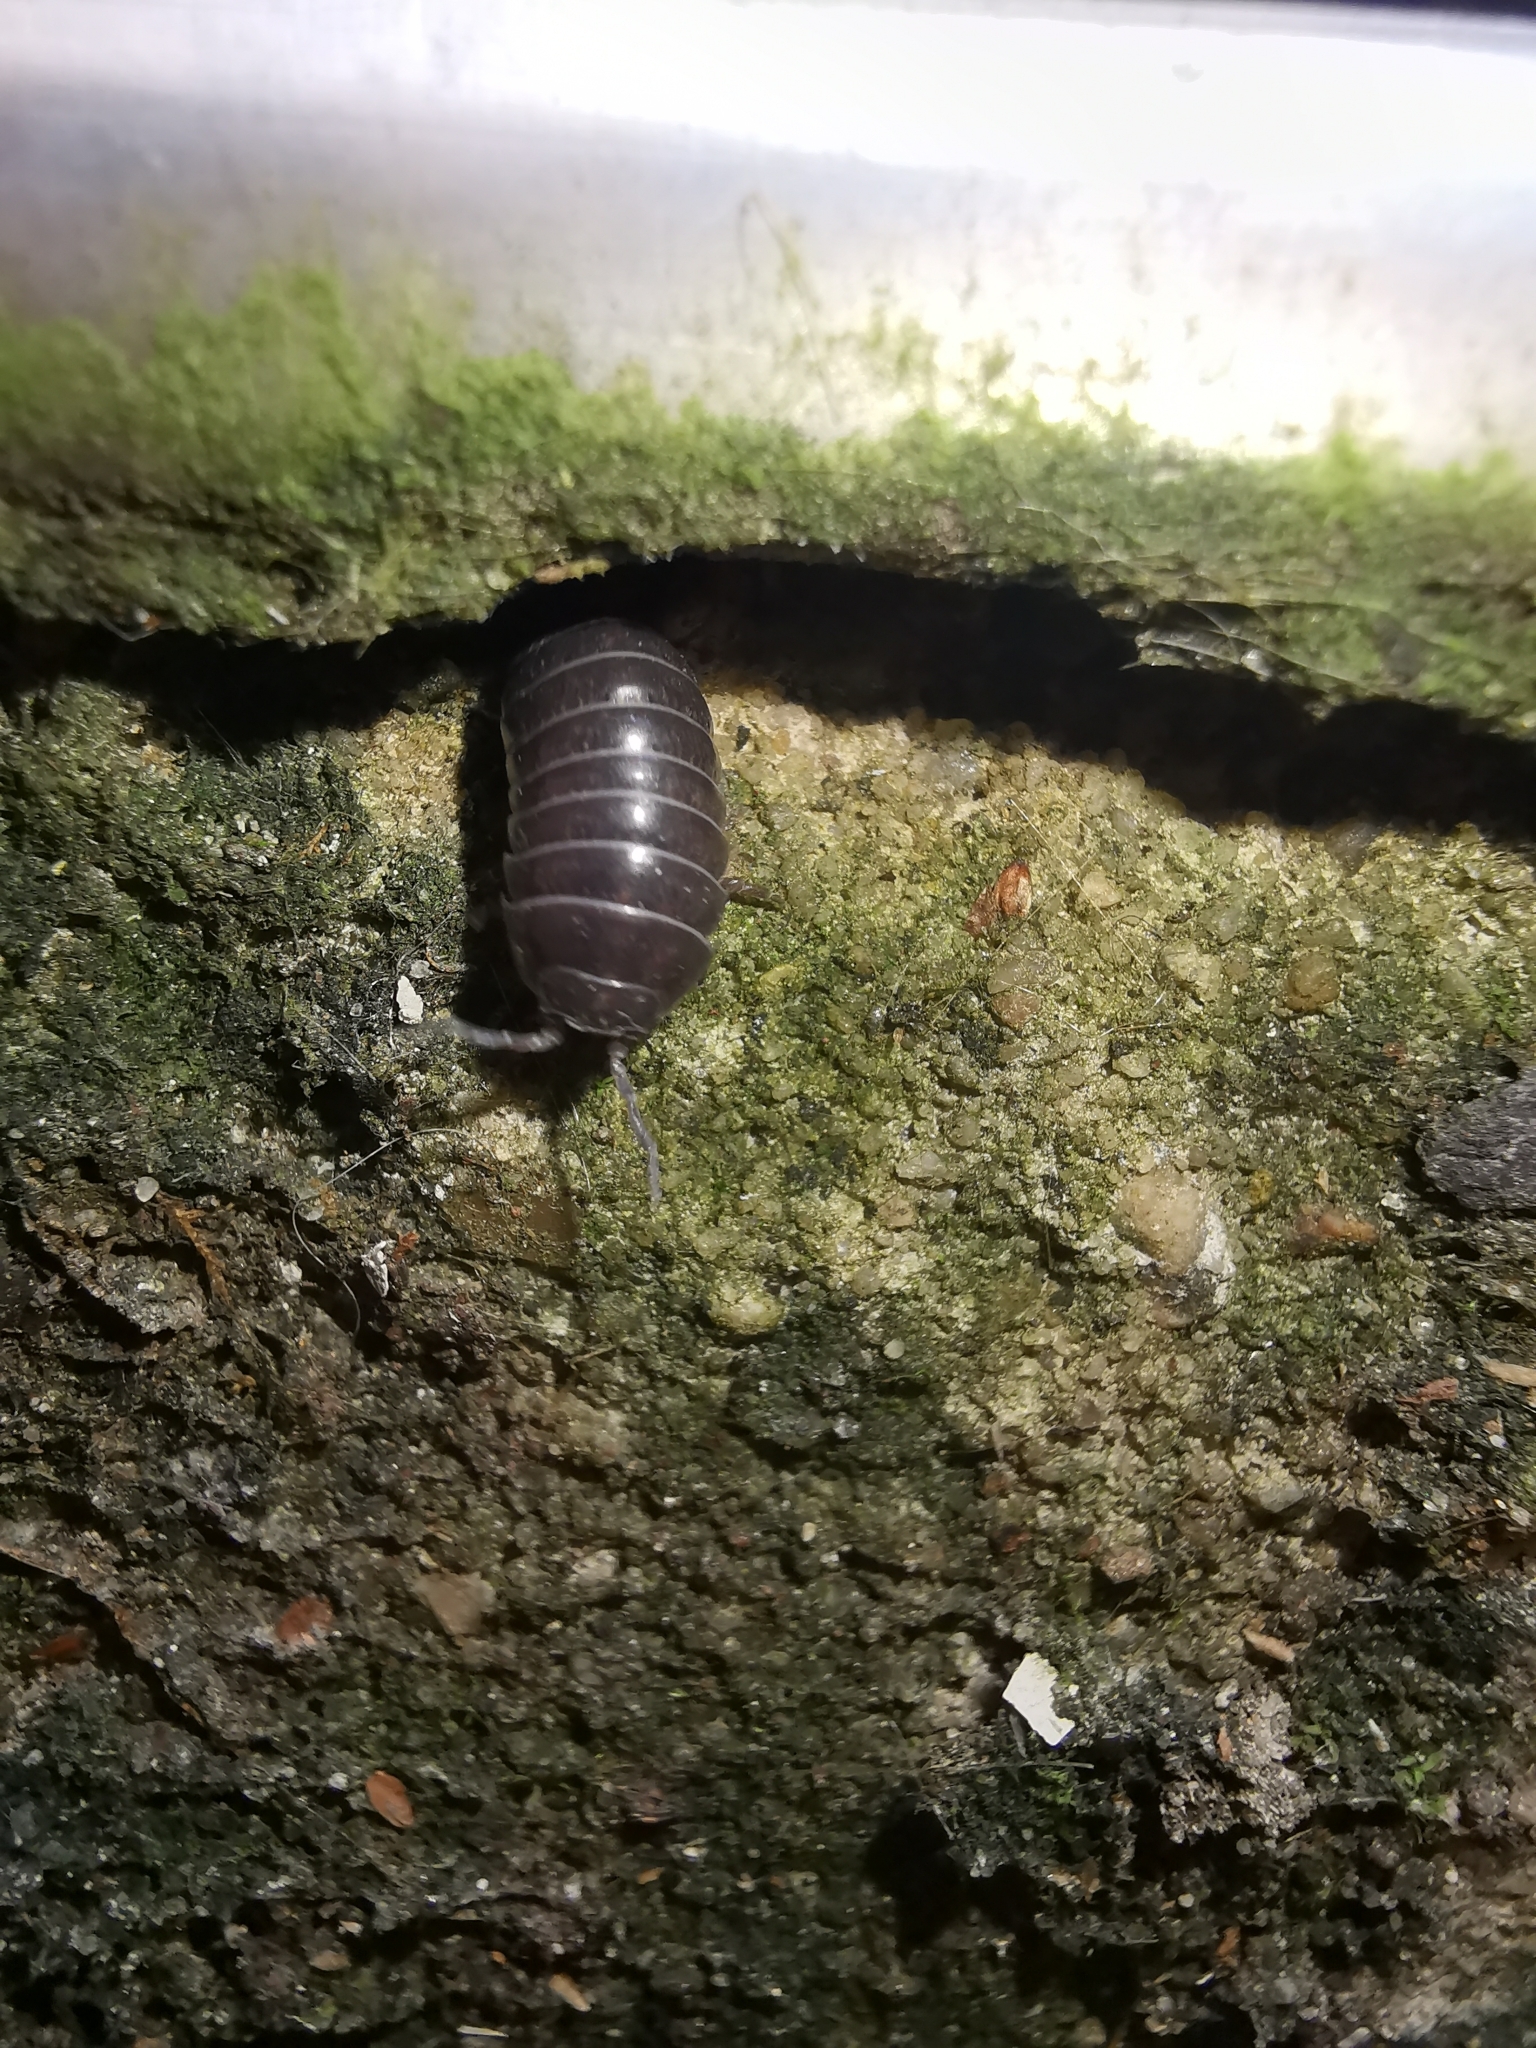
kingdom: Animalia
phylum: Arthropoda
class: Malacostraca
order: Isopoda
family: Armadillidiidae
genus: Armadillidium
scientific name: Armadillidium vulgare
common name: Common pill woodlouse
